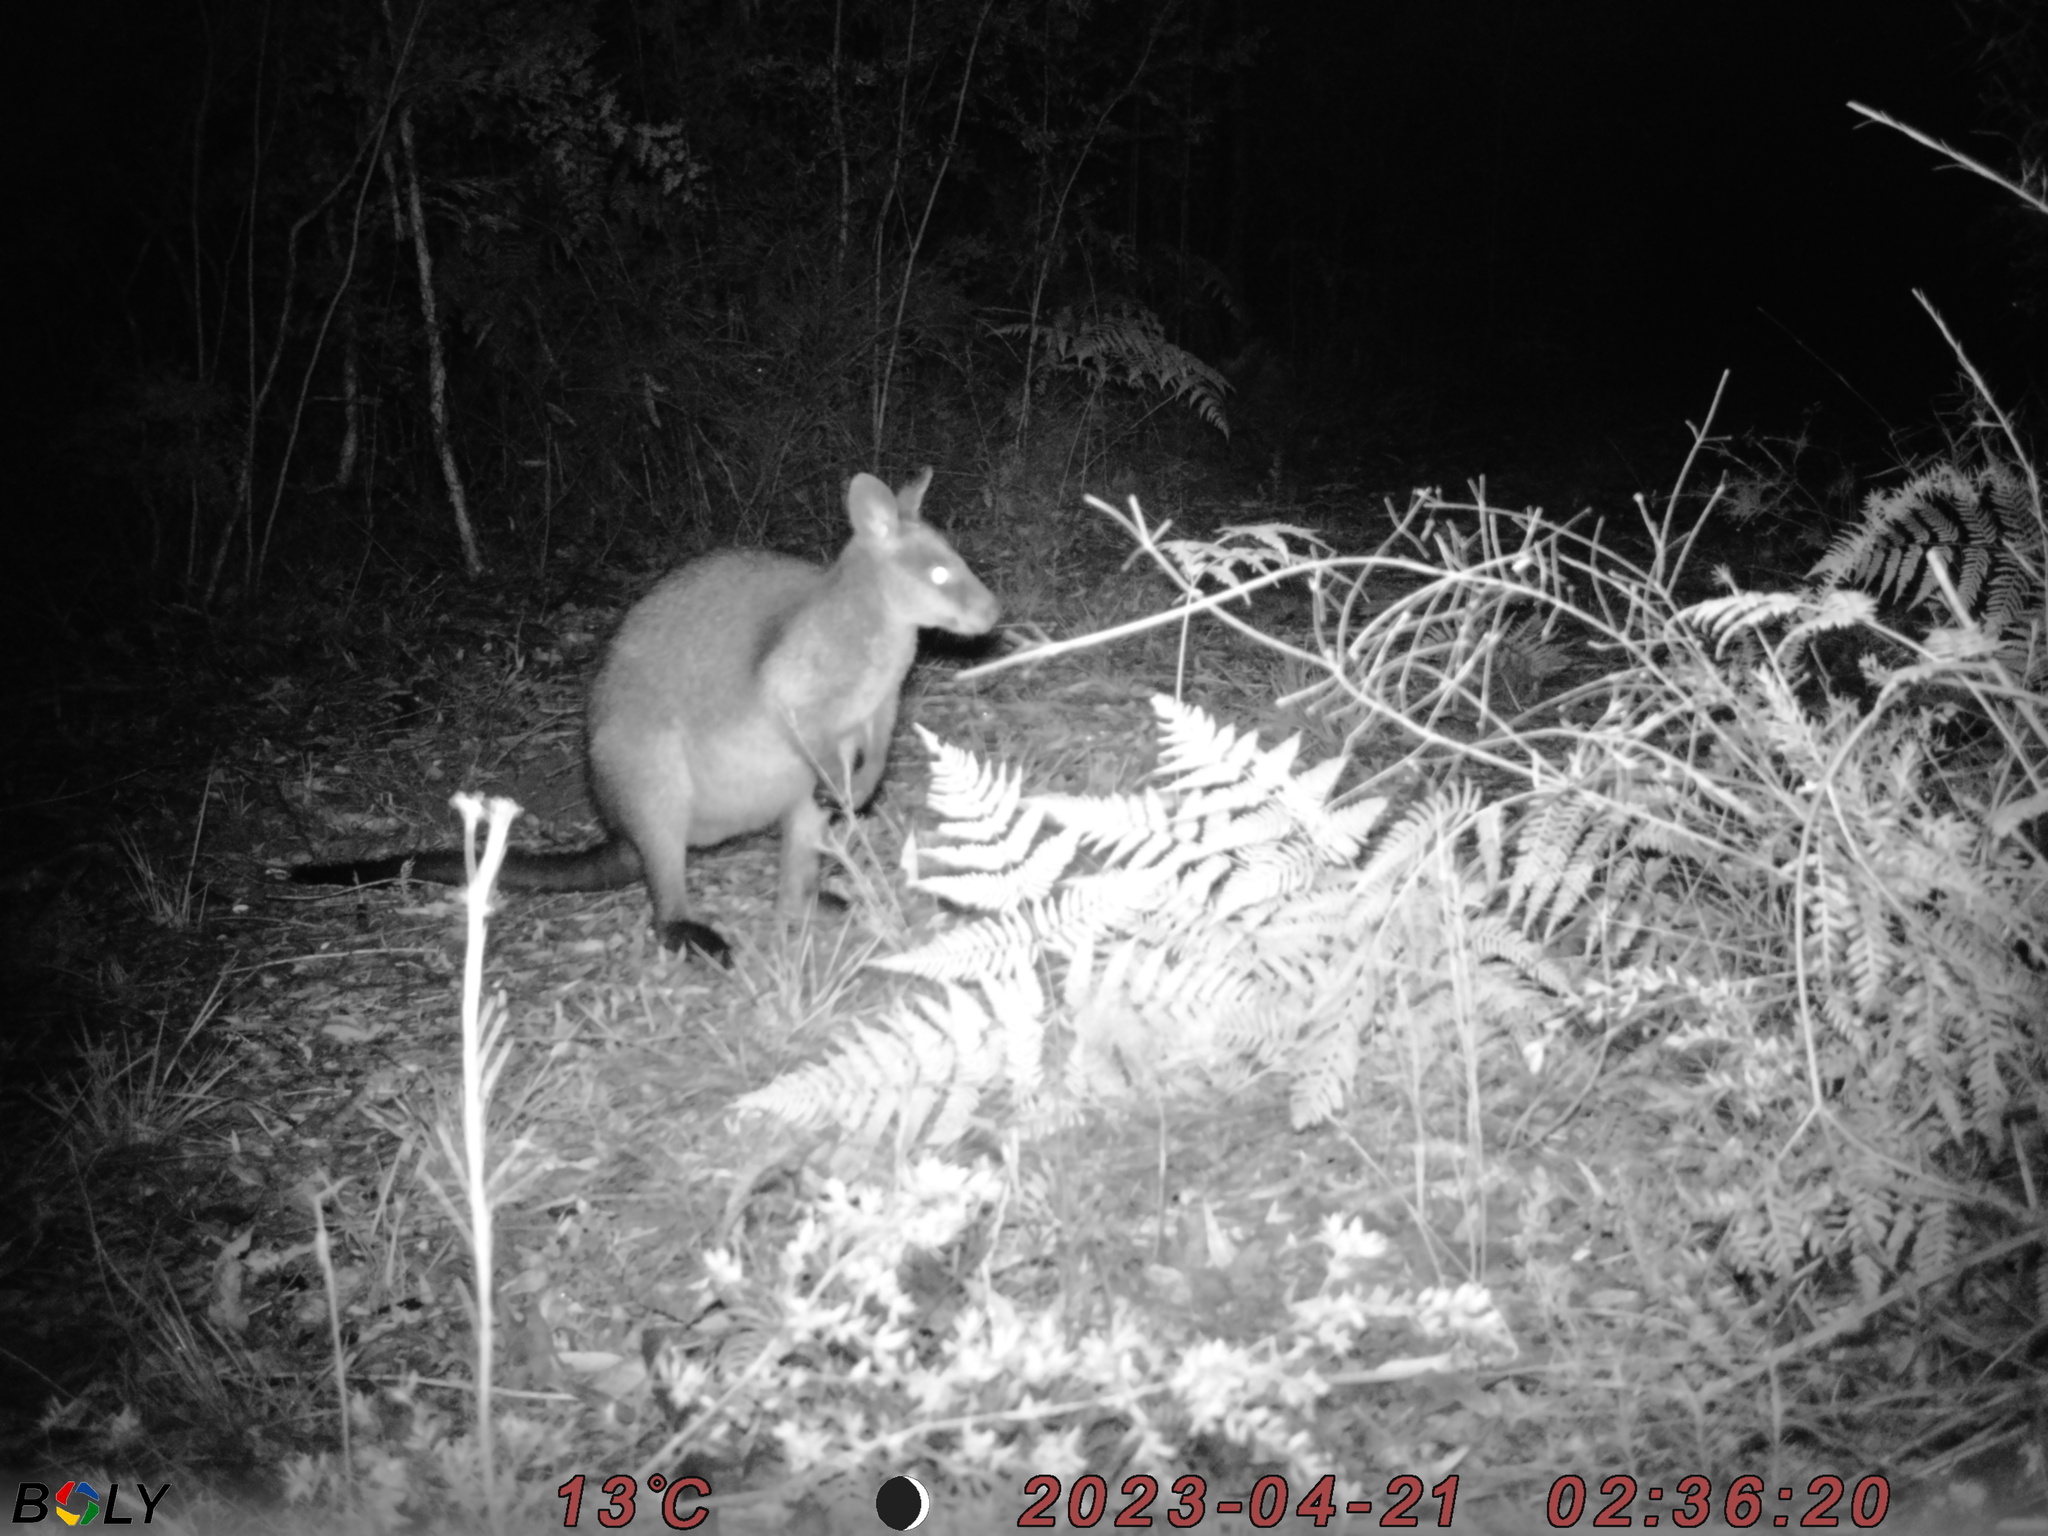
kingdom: Animalia
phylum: Chordata
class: Mammalia
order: Diprotodontia
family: Macropodidae
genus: Wallabia
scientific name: Wallabia bicolor
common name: Swamp wallaby
